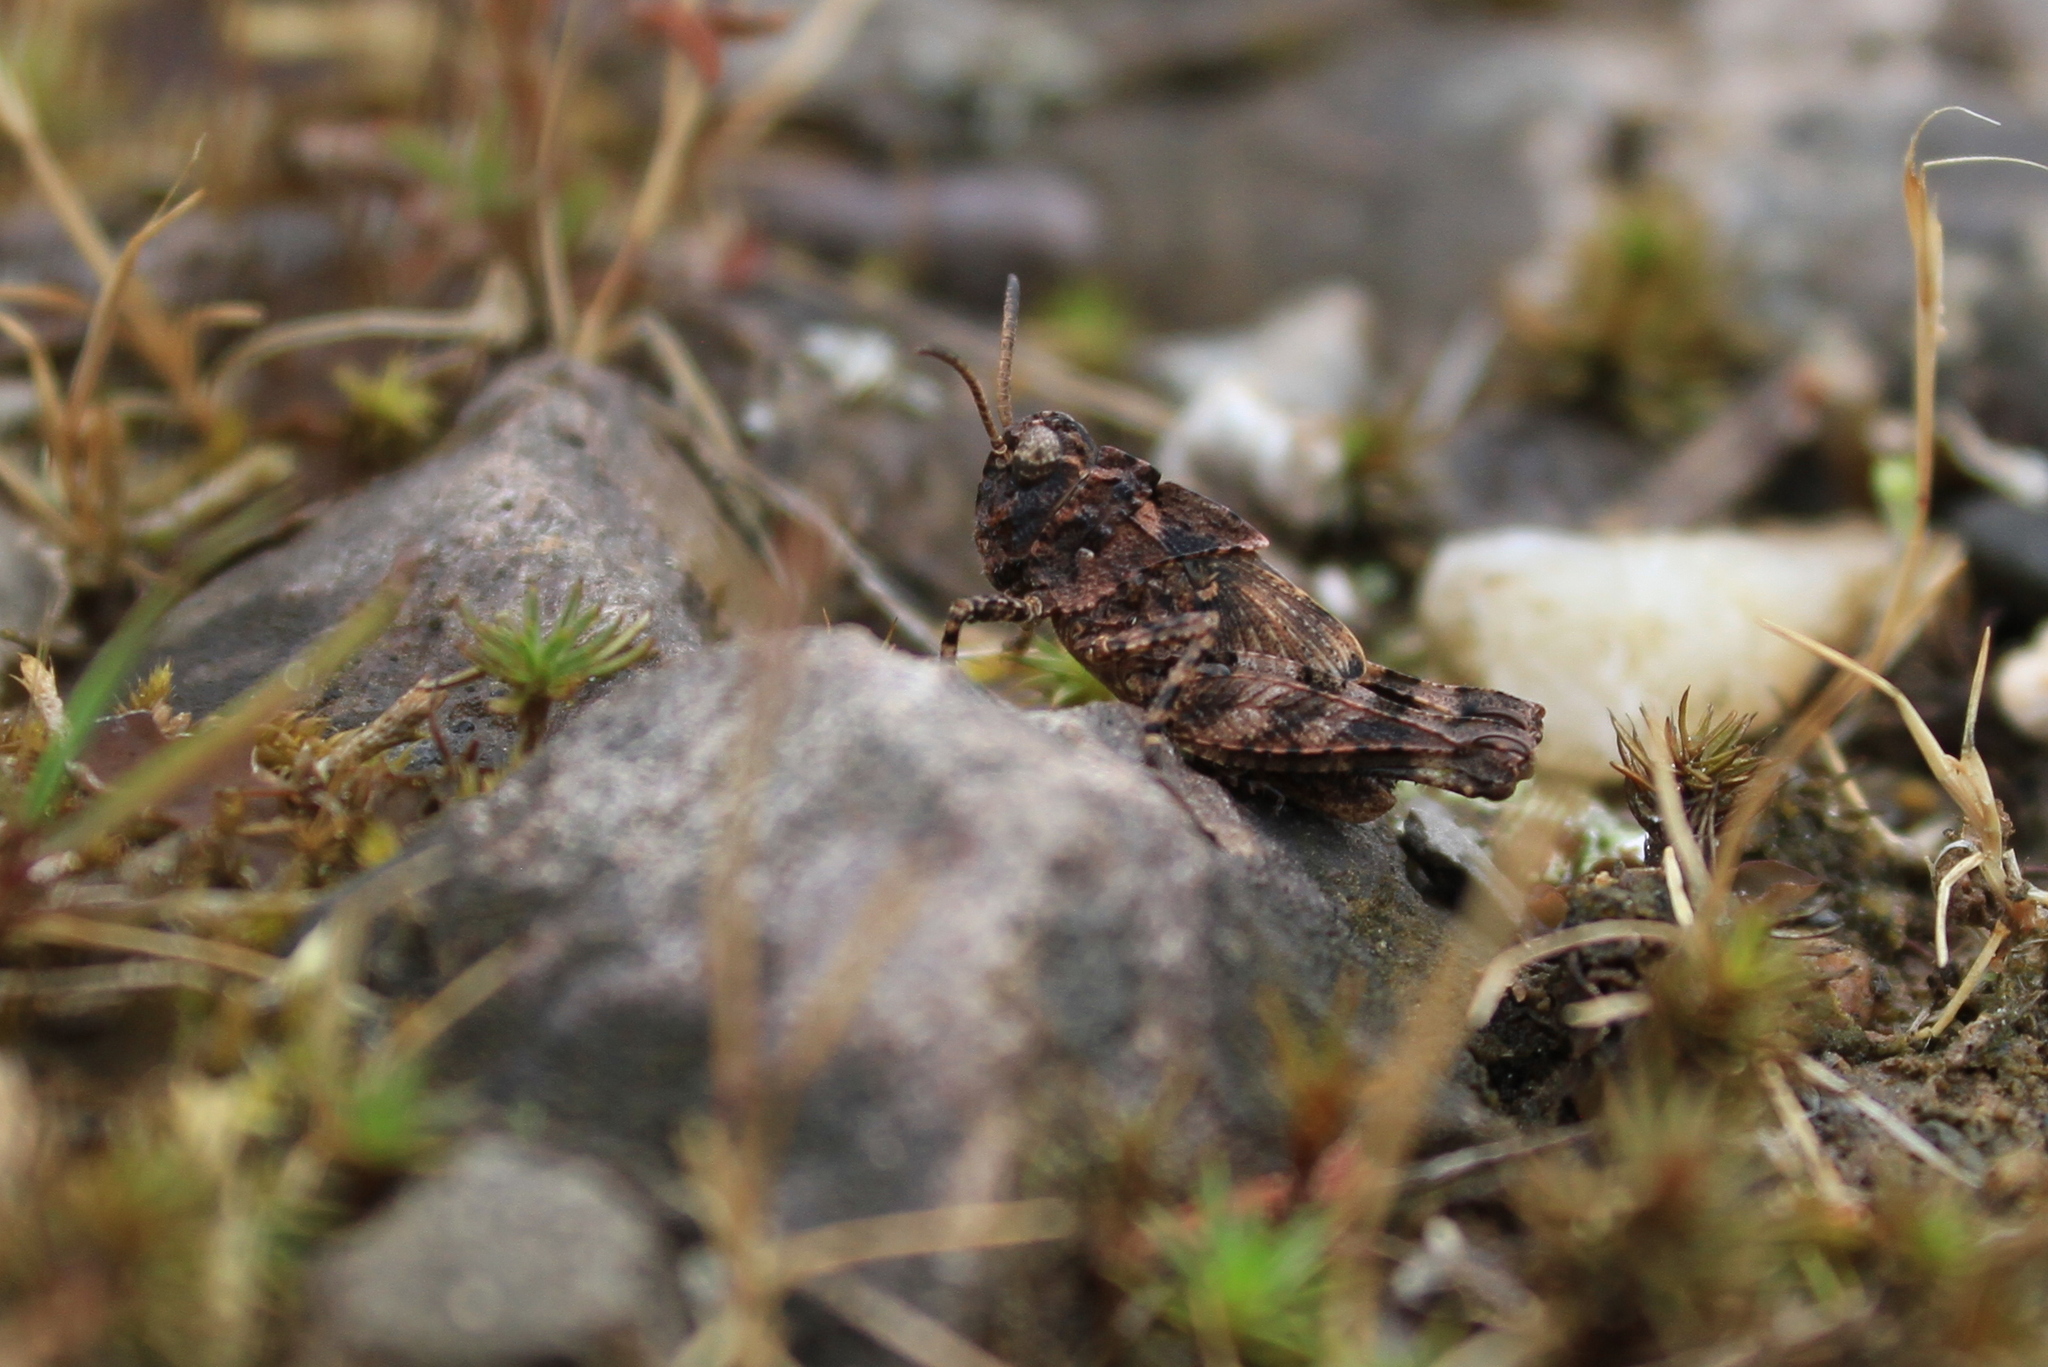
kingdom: Animalia
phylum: Arthropoda
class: Insecta
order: Orthoptera
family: Acrididae
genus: Oedipoda
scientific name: Oedipoda caerulescens
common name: Blue-winged grasshopper
